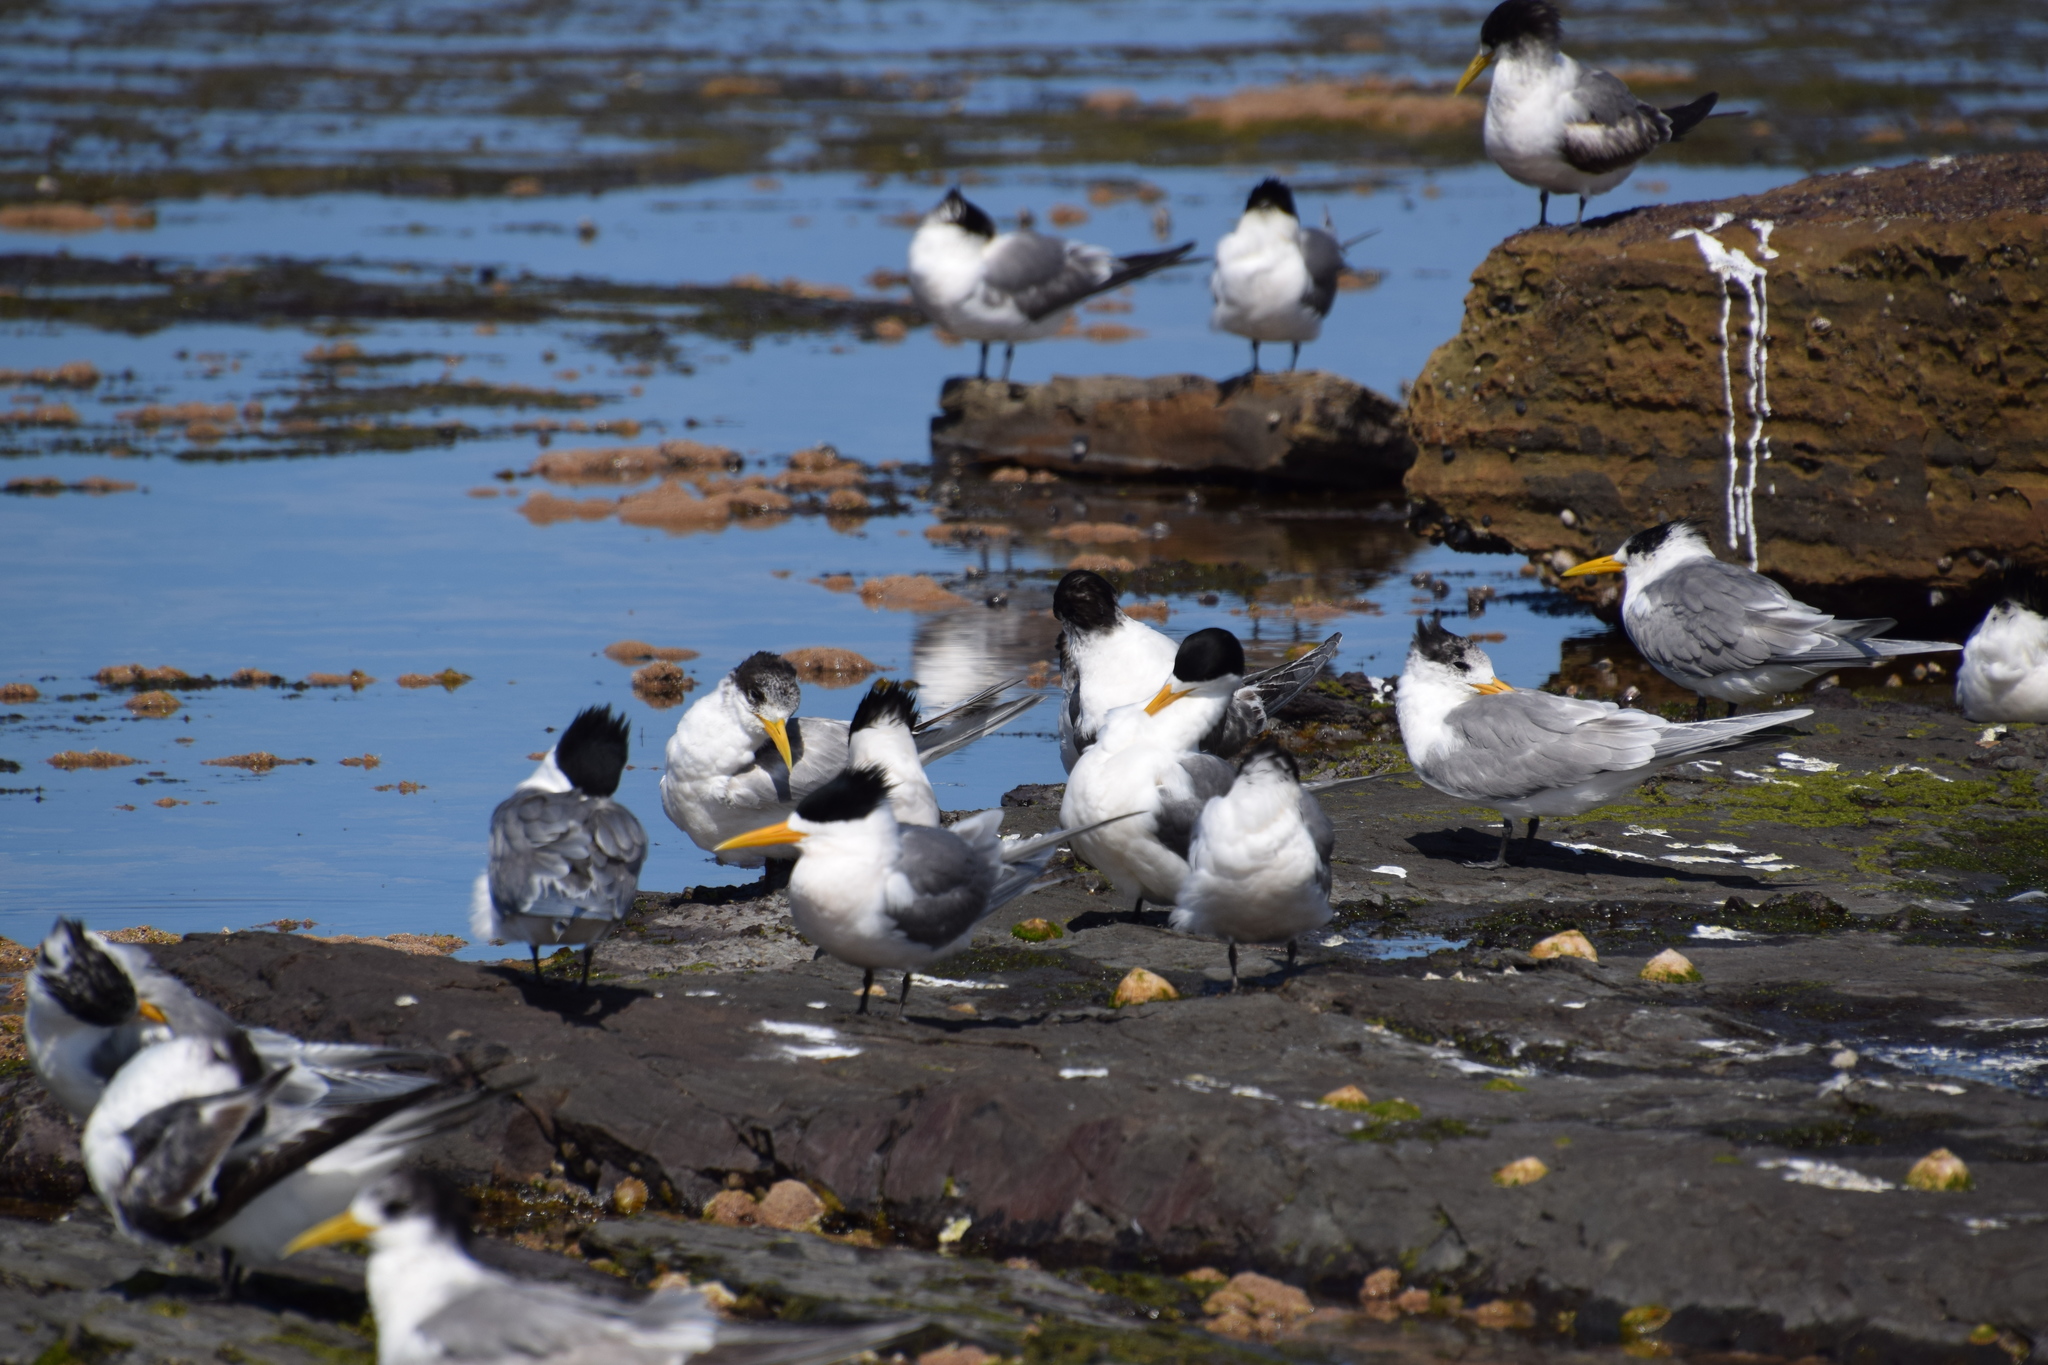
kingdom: Animalia
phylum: Chordata
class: Aves
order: Charadriiformes
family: Laridae
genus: Thalasseus
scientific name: Thalasseus bergii
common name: Greater crested tern
